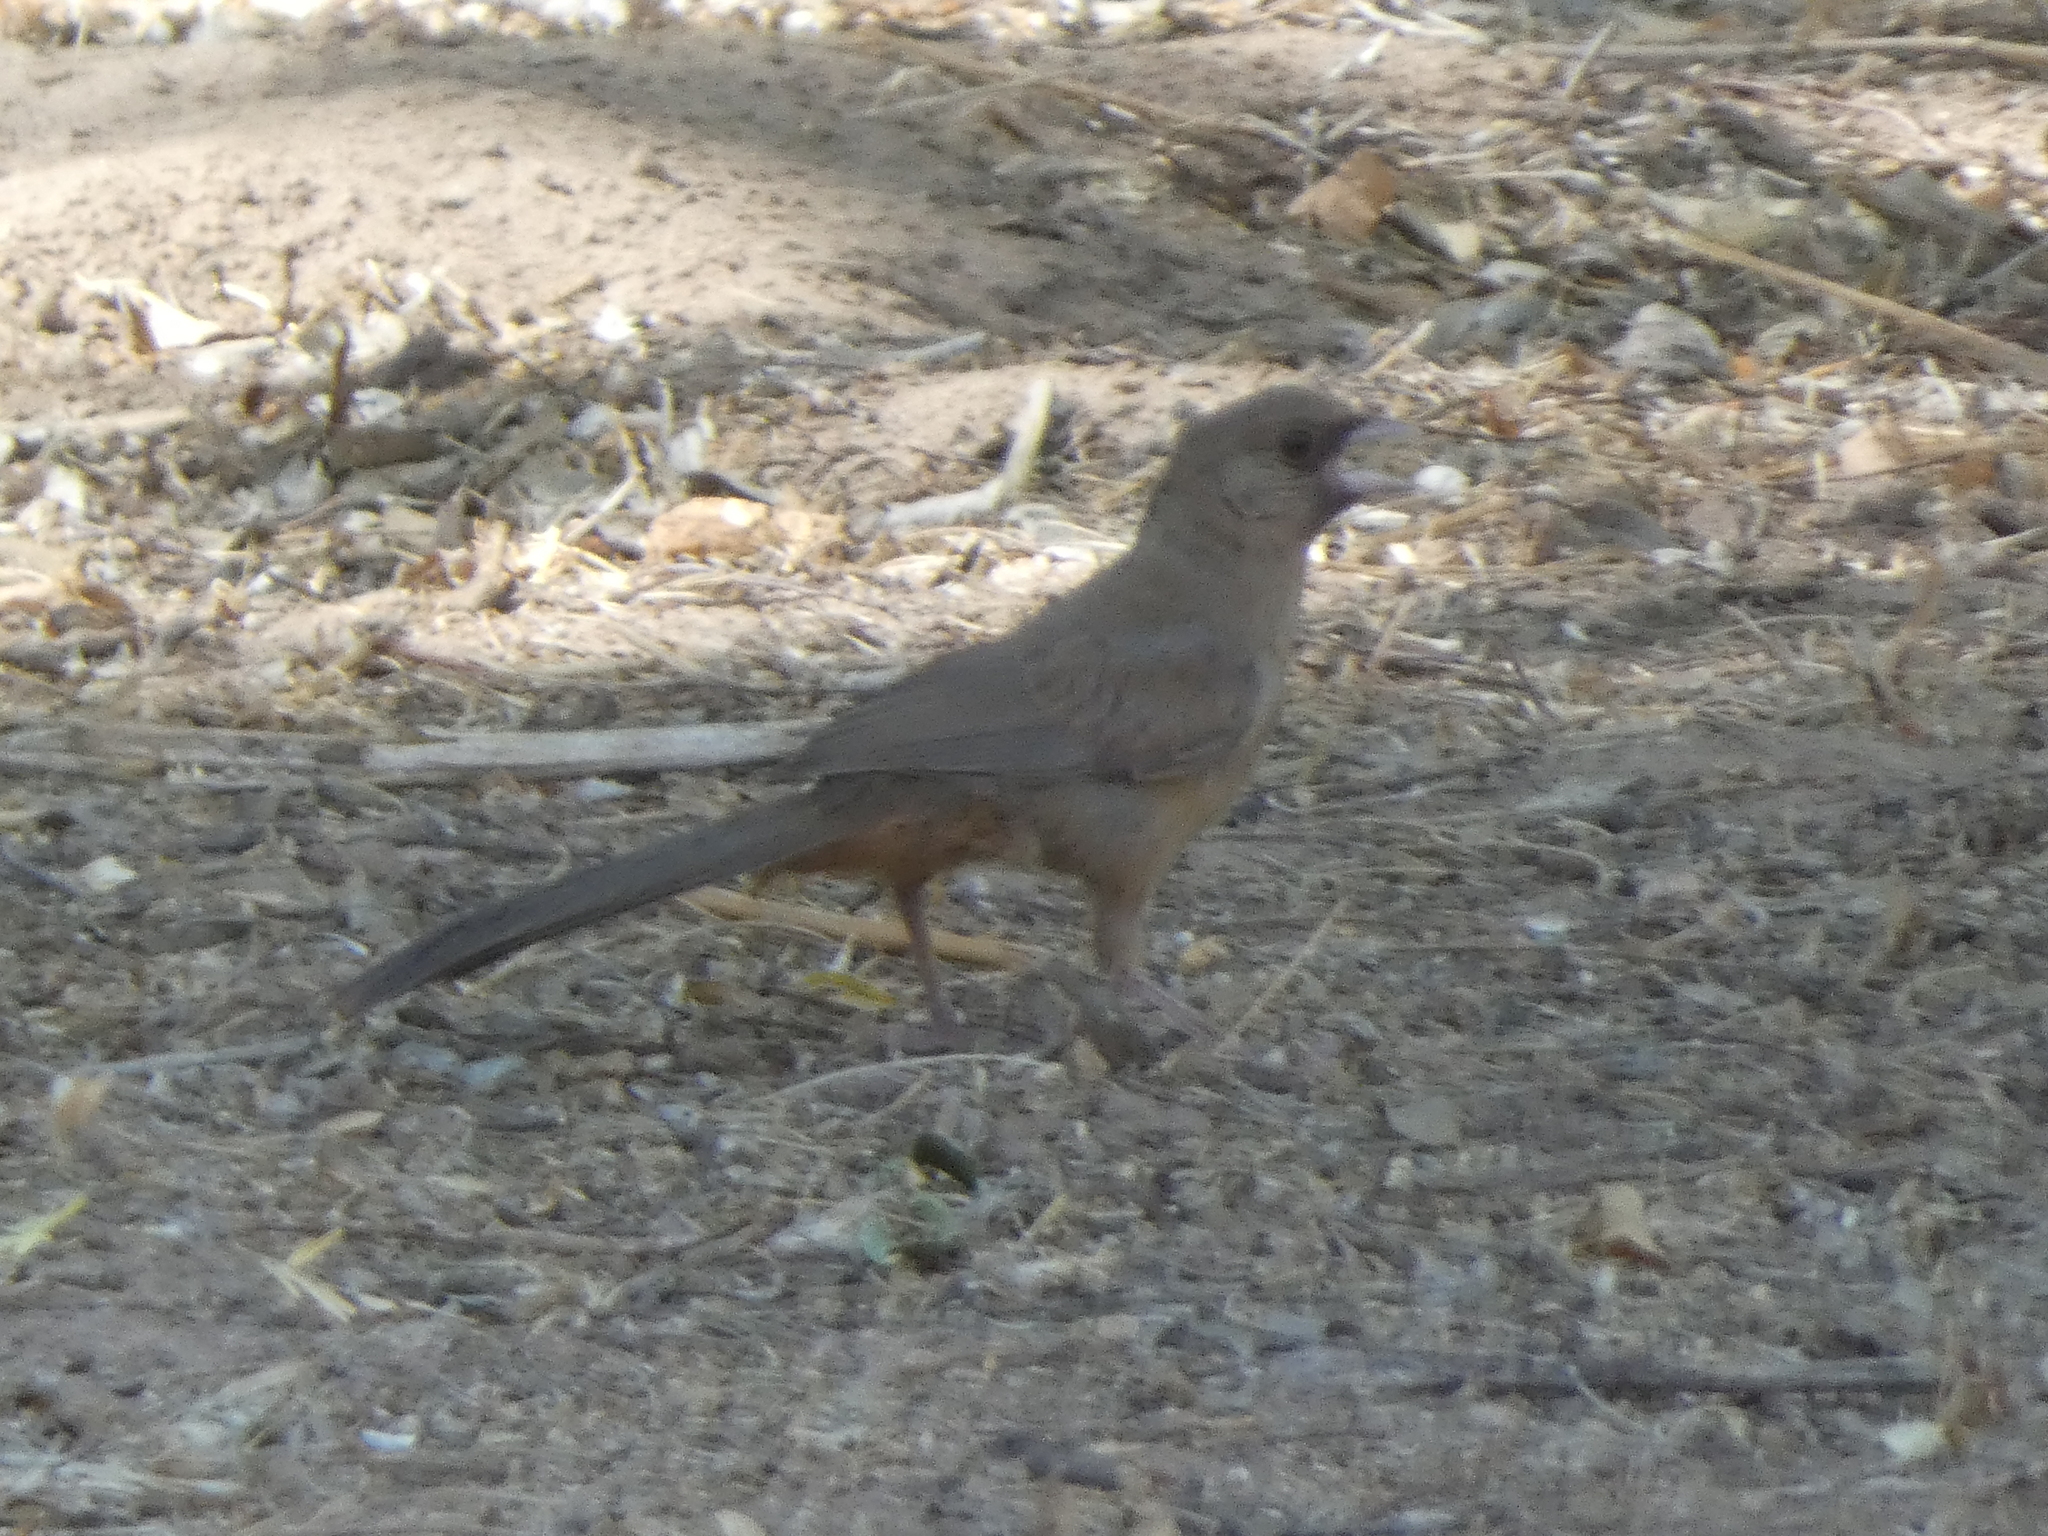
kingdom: Animalia
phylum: Chordata
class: Aves
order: Passeriformes
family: Passerellidae
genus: Melozone
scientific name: Melozone aberti
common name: Abert's towhee
